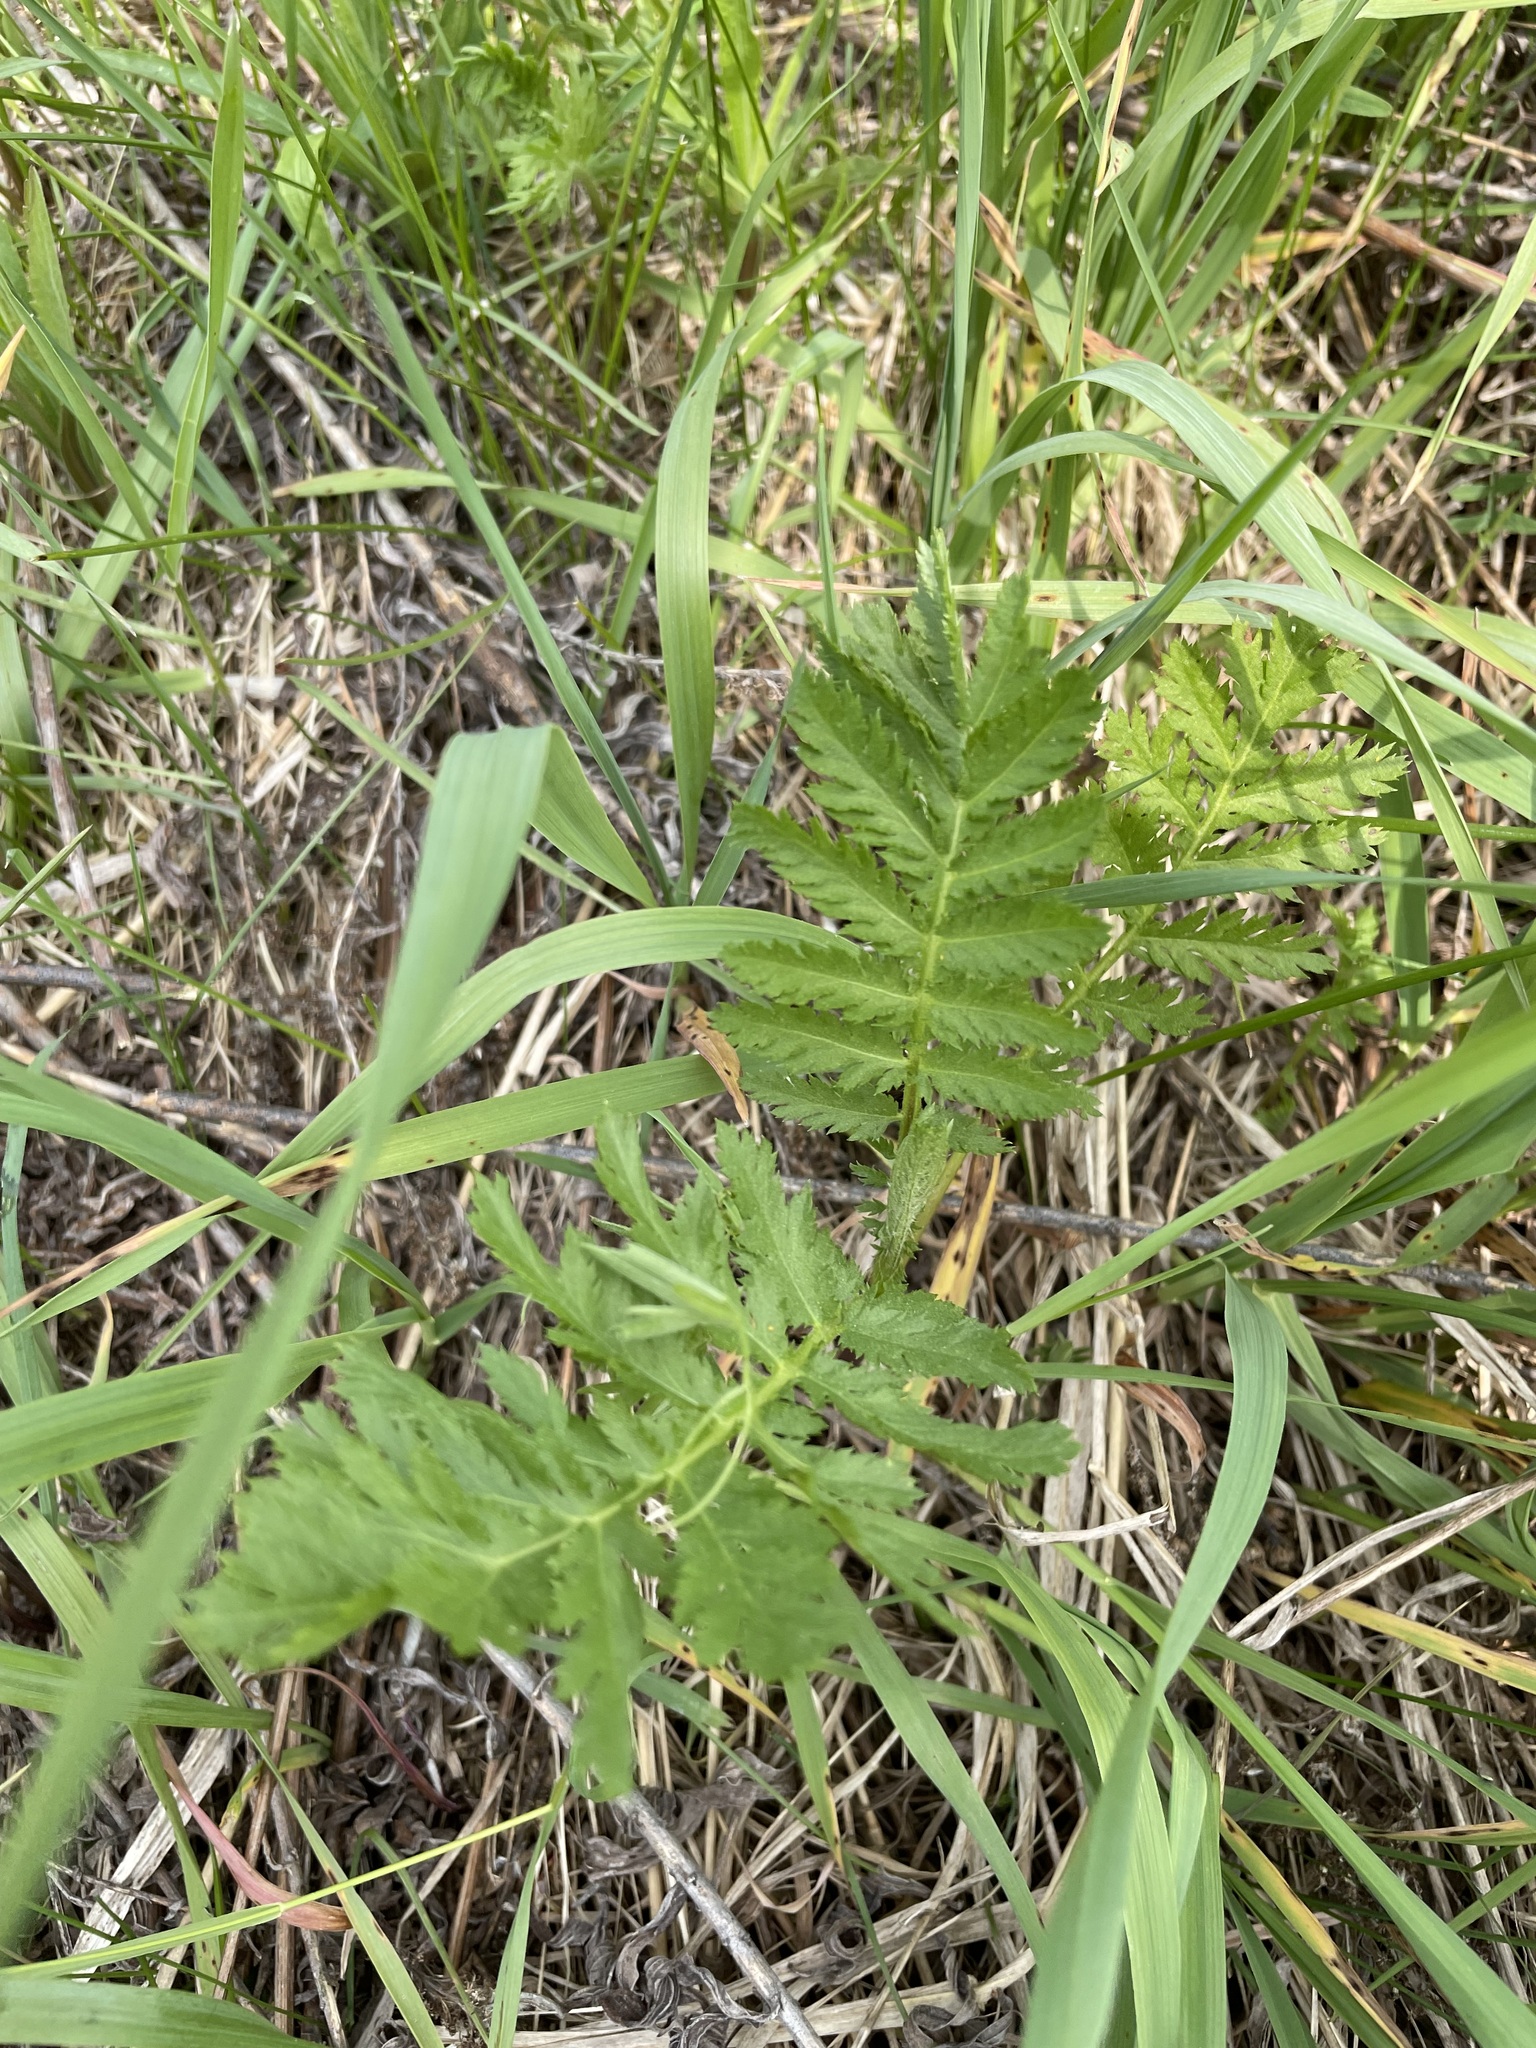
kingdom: Plantae
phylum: Tracheophyta
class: Magnoliopsida
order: Asterales
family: Asteraceae
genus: Tanacetum
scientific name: Tanacetum vulgare
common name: Common tansy
